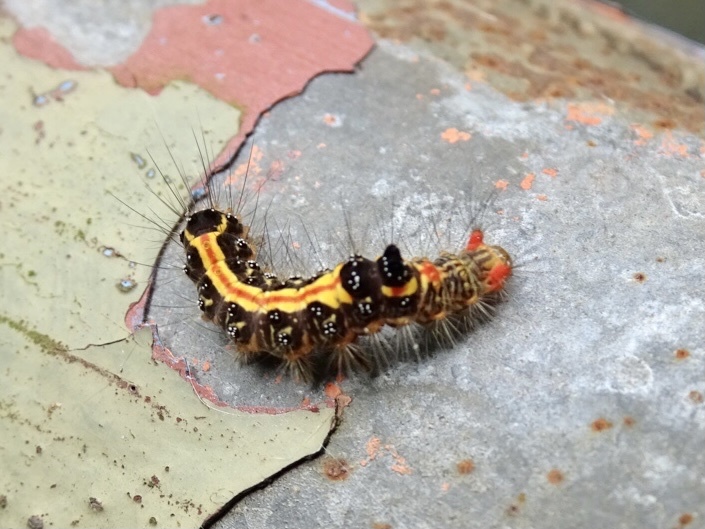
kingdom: Animalia
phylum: Arthropoda
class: Insecta
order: Lepidoptera
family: Erebidae
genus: Orvasca
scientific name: Orvasca subnotata
